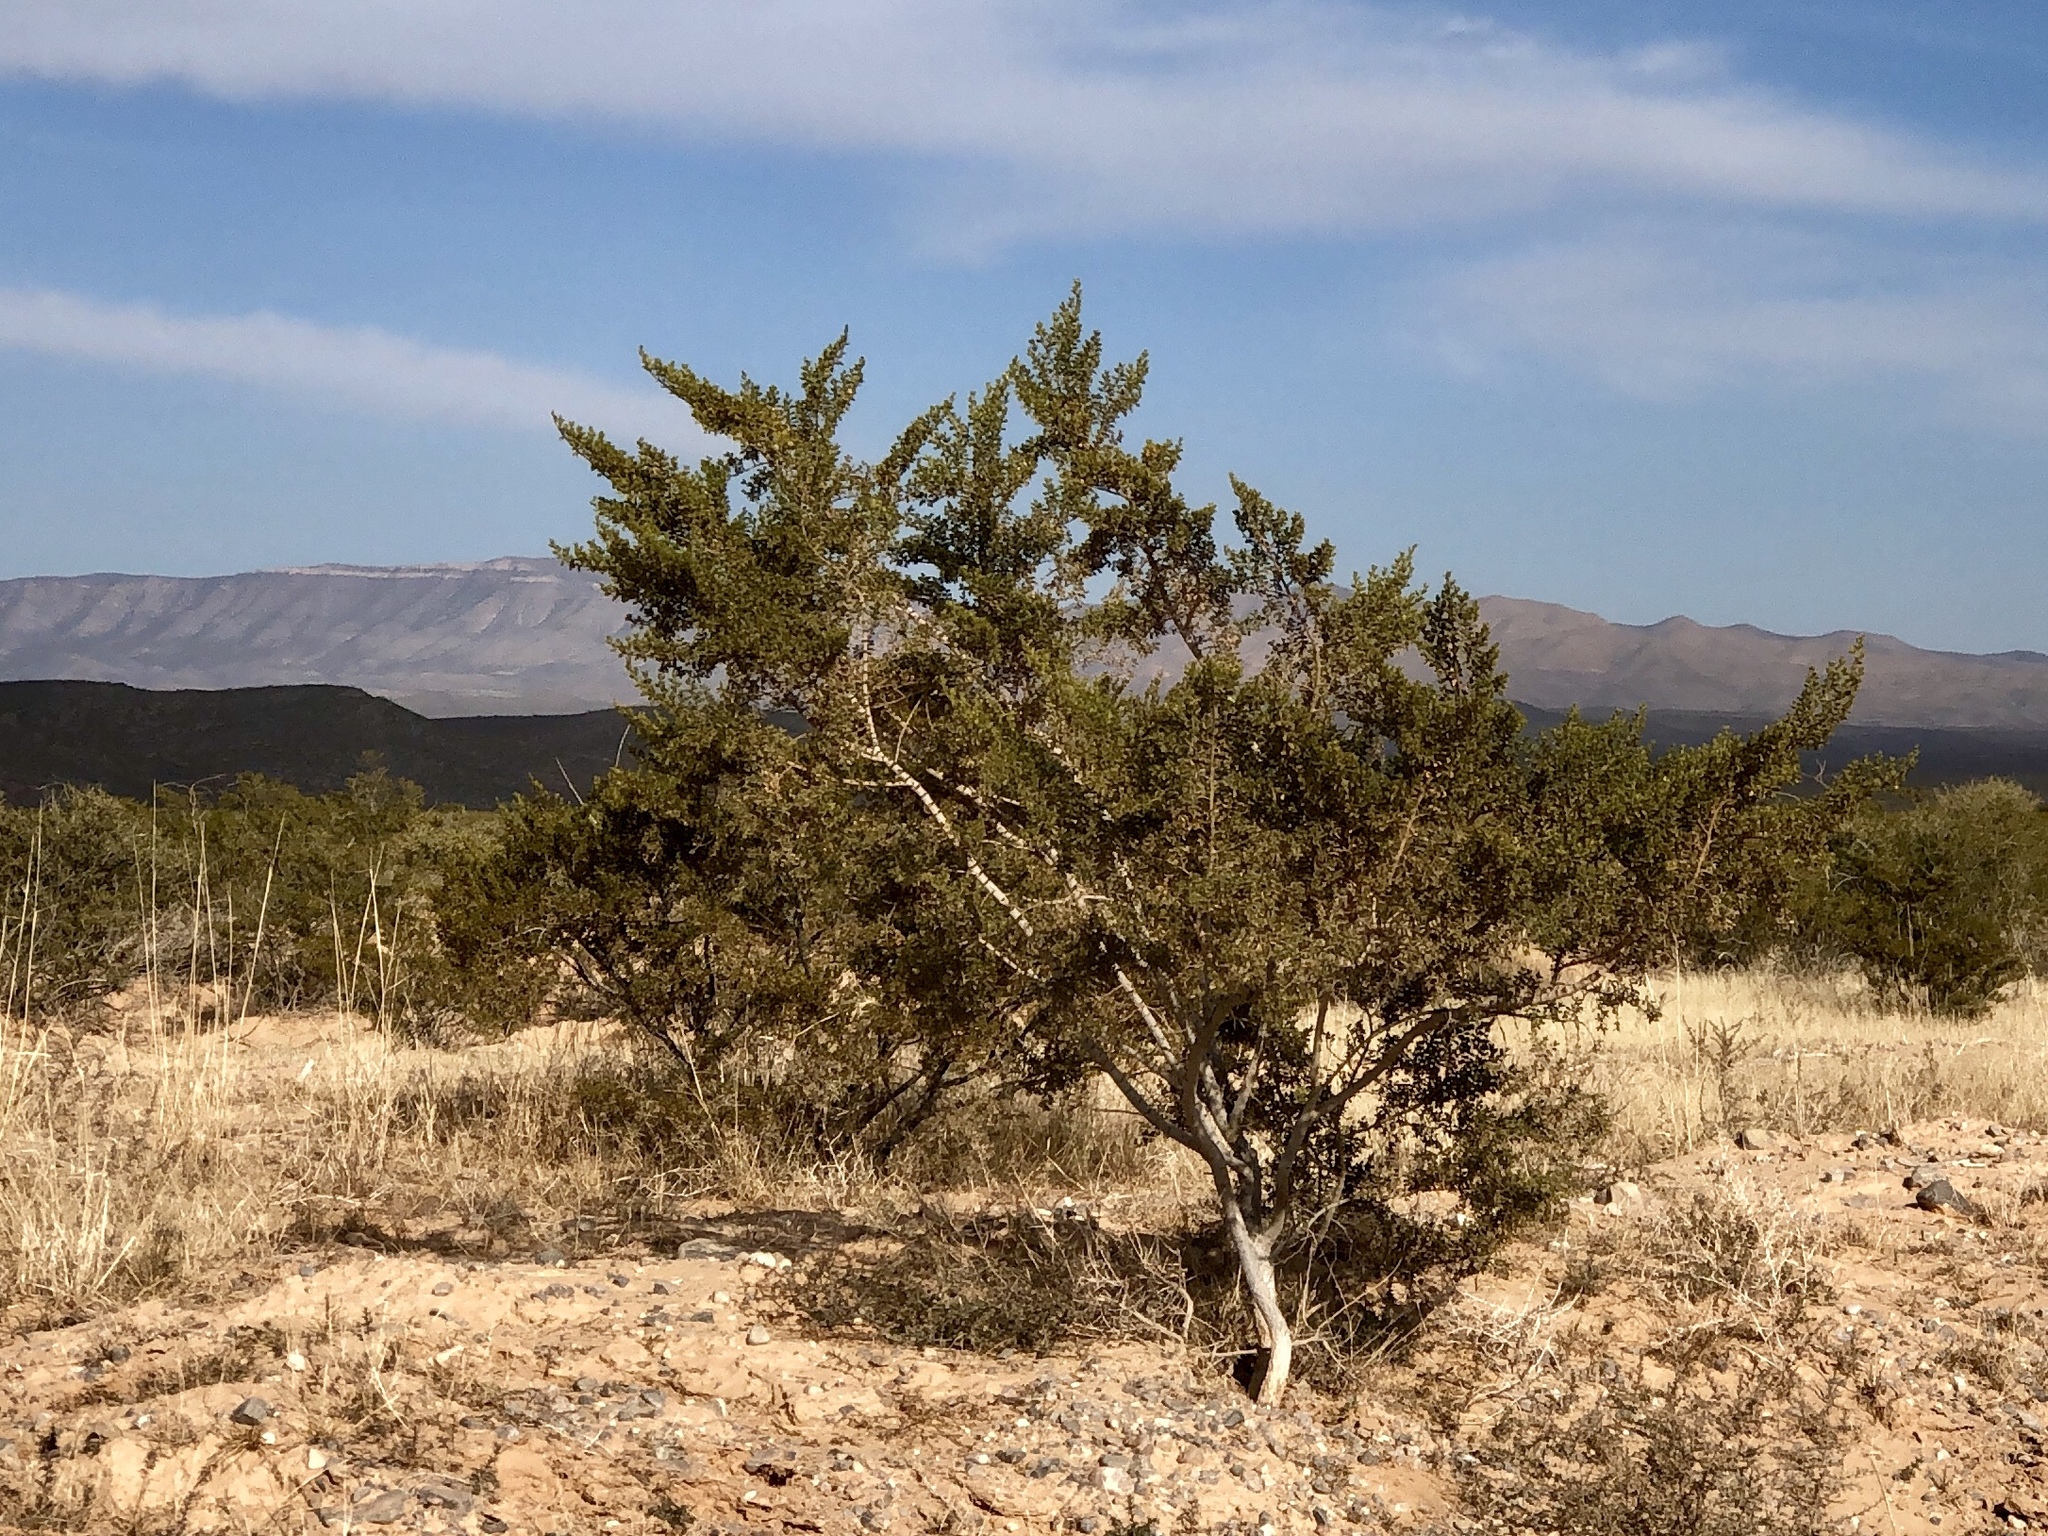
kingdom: Plantae
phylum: Tracheophyta
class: Magnoliopsida
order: Zygophyllales
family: Zygophyllaceae
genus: Larrea
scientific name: Larrea tridentata
